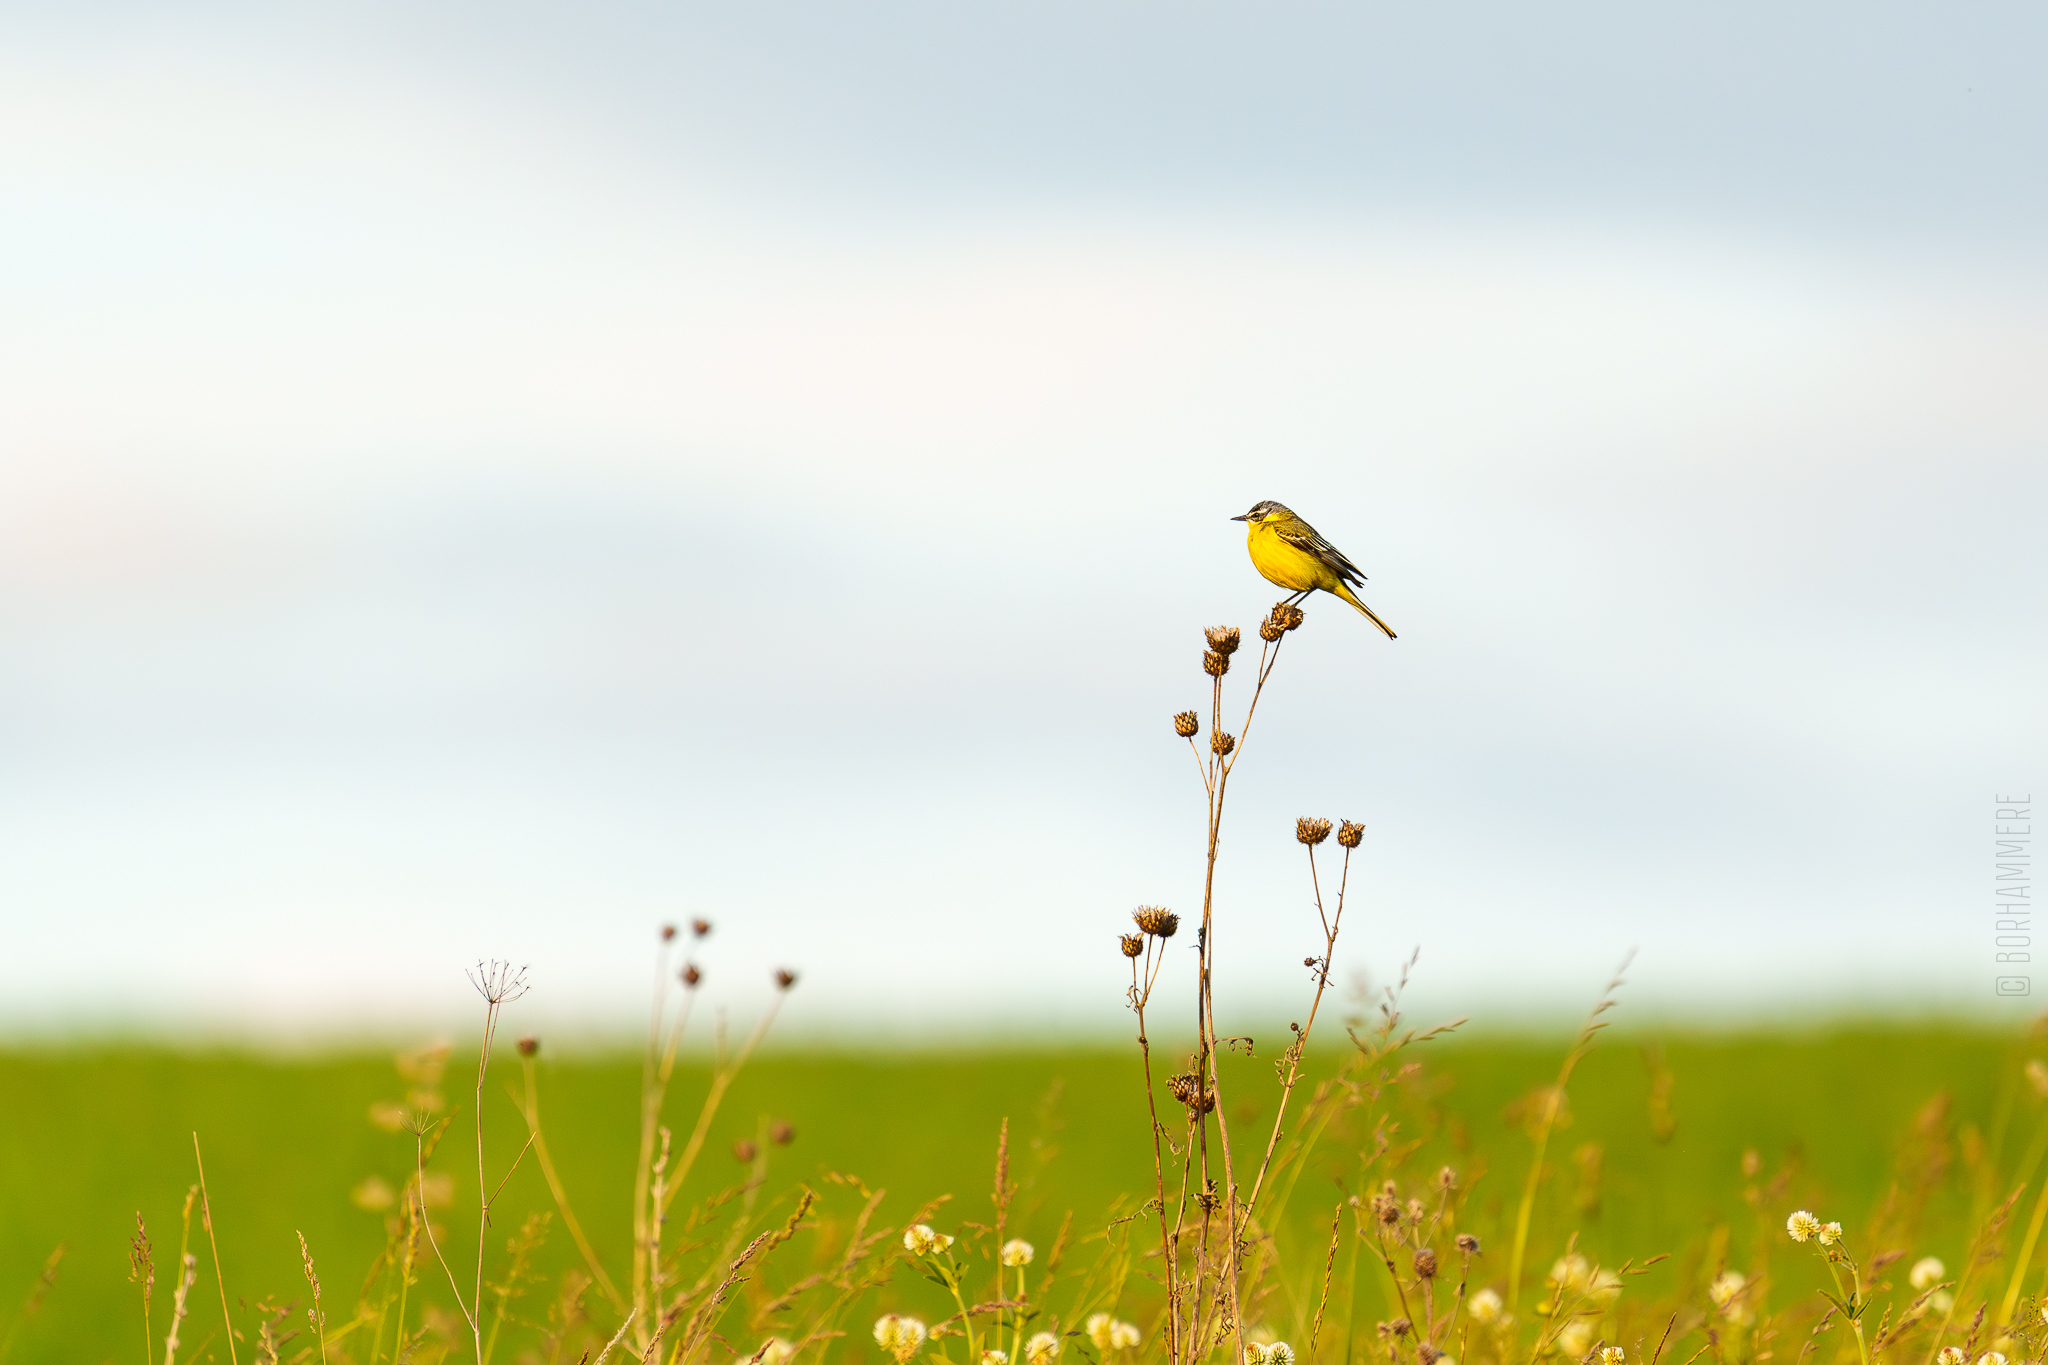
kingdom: Animalia
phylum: Chordata
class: Aves
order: Passeriformes
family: Motacillidae
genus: Motacilla
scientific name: Motacilla flava
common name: Western yellow wagtail
